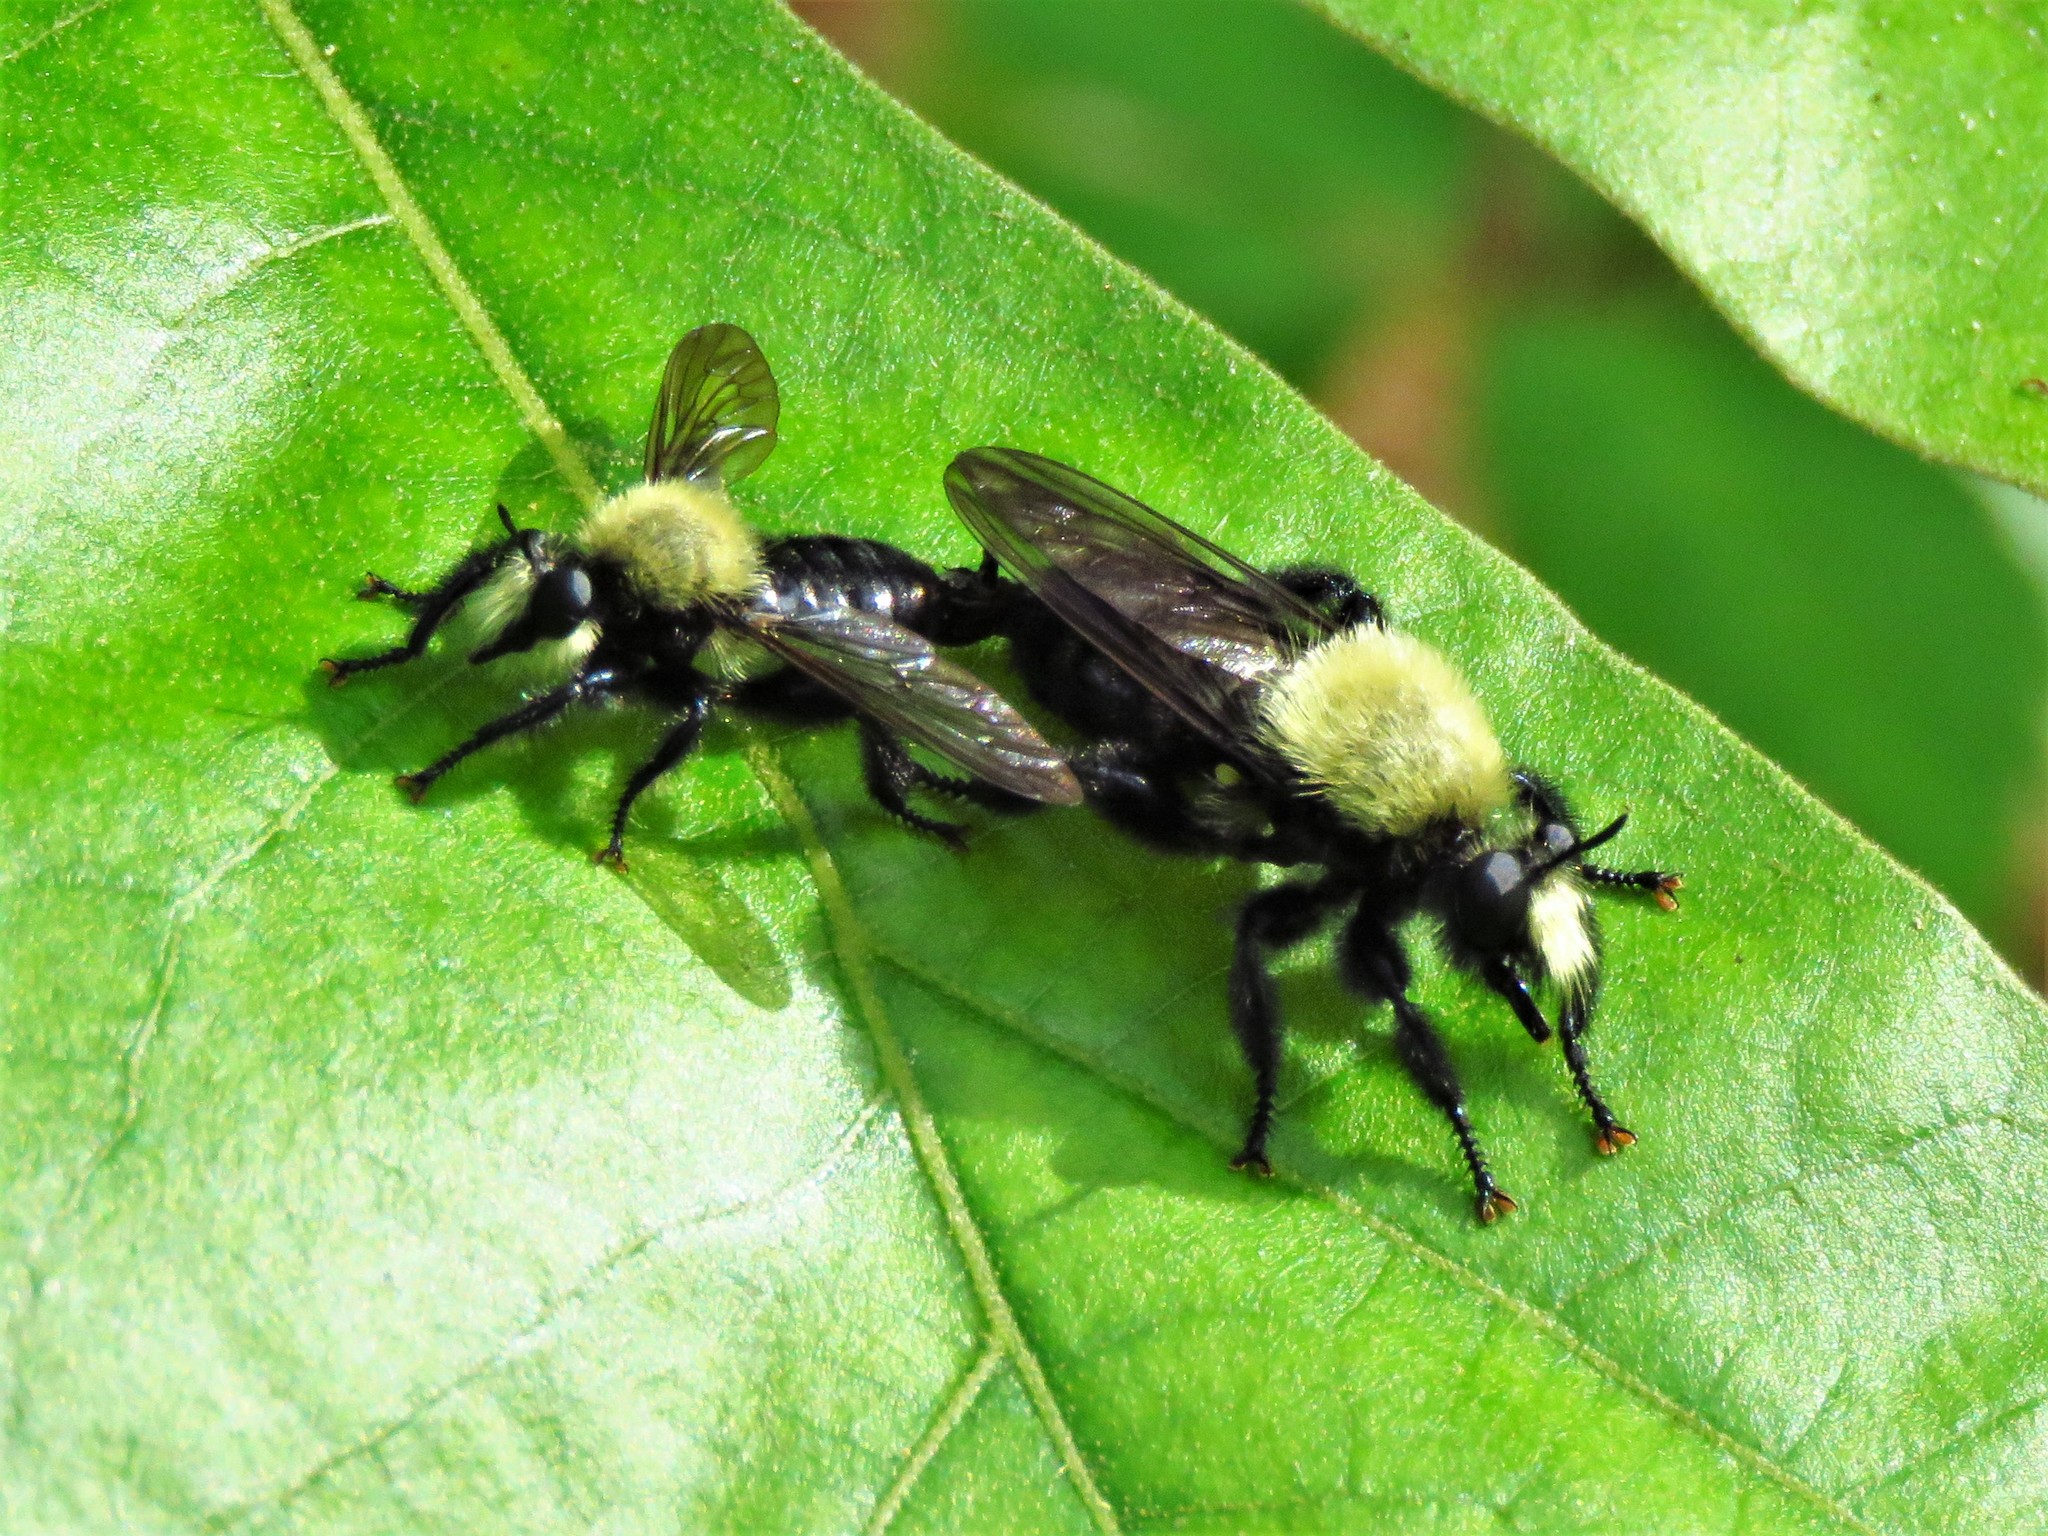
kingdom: Animalia
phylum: Arthropoda
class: Insecta
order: Diptera
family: Asilidae
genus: Laphria
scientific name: Laphria flavicollis
